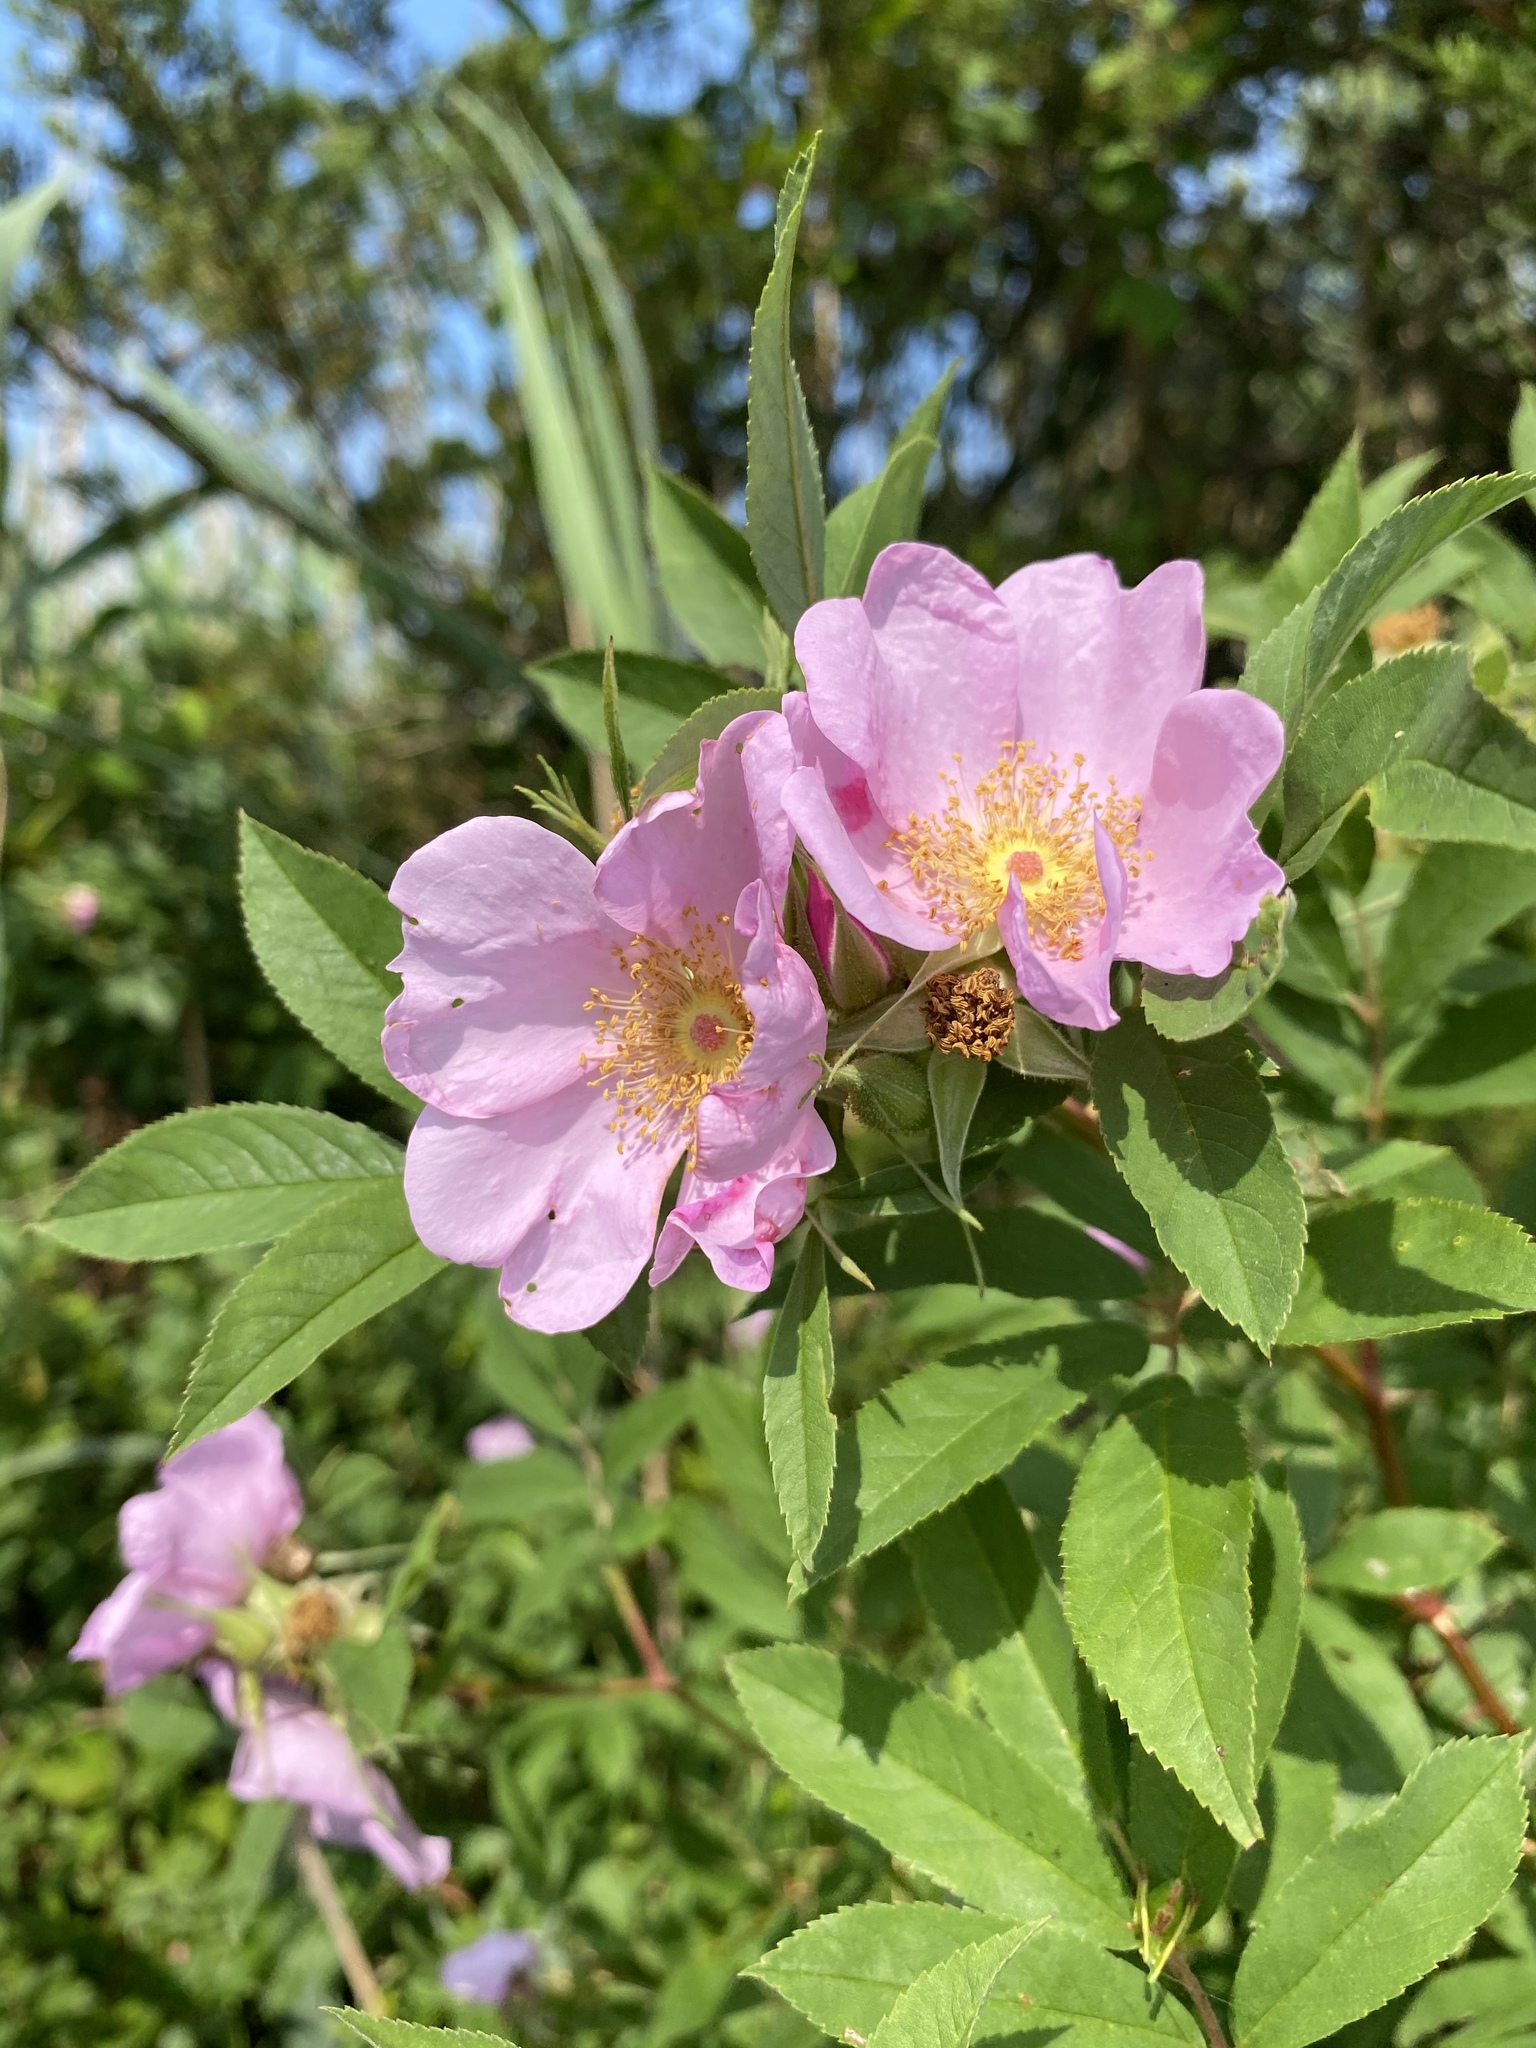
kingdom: Plantae
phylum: Tracheophyta
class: Magnoliopsida
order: Rosales
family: Rosaceae
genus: Rosa
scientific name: Rosa palustris
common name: Swamp rose
